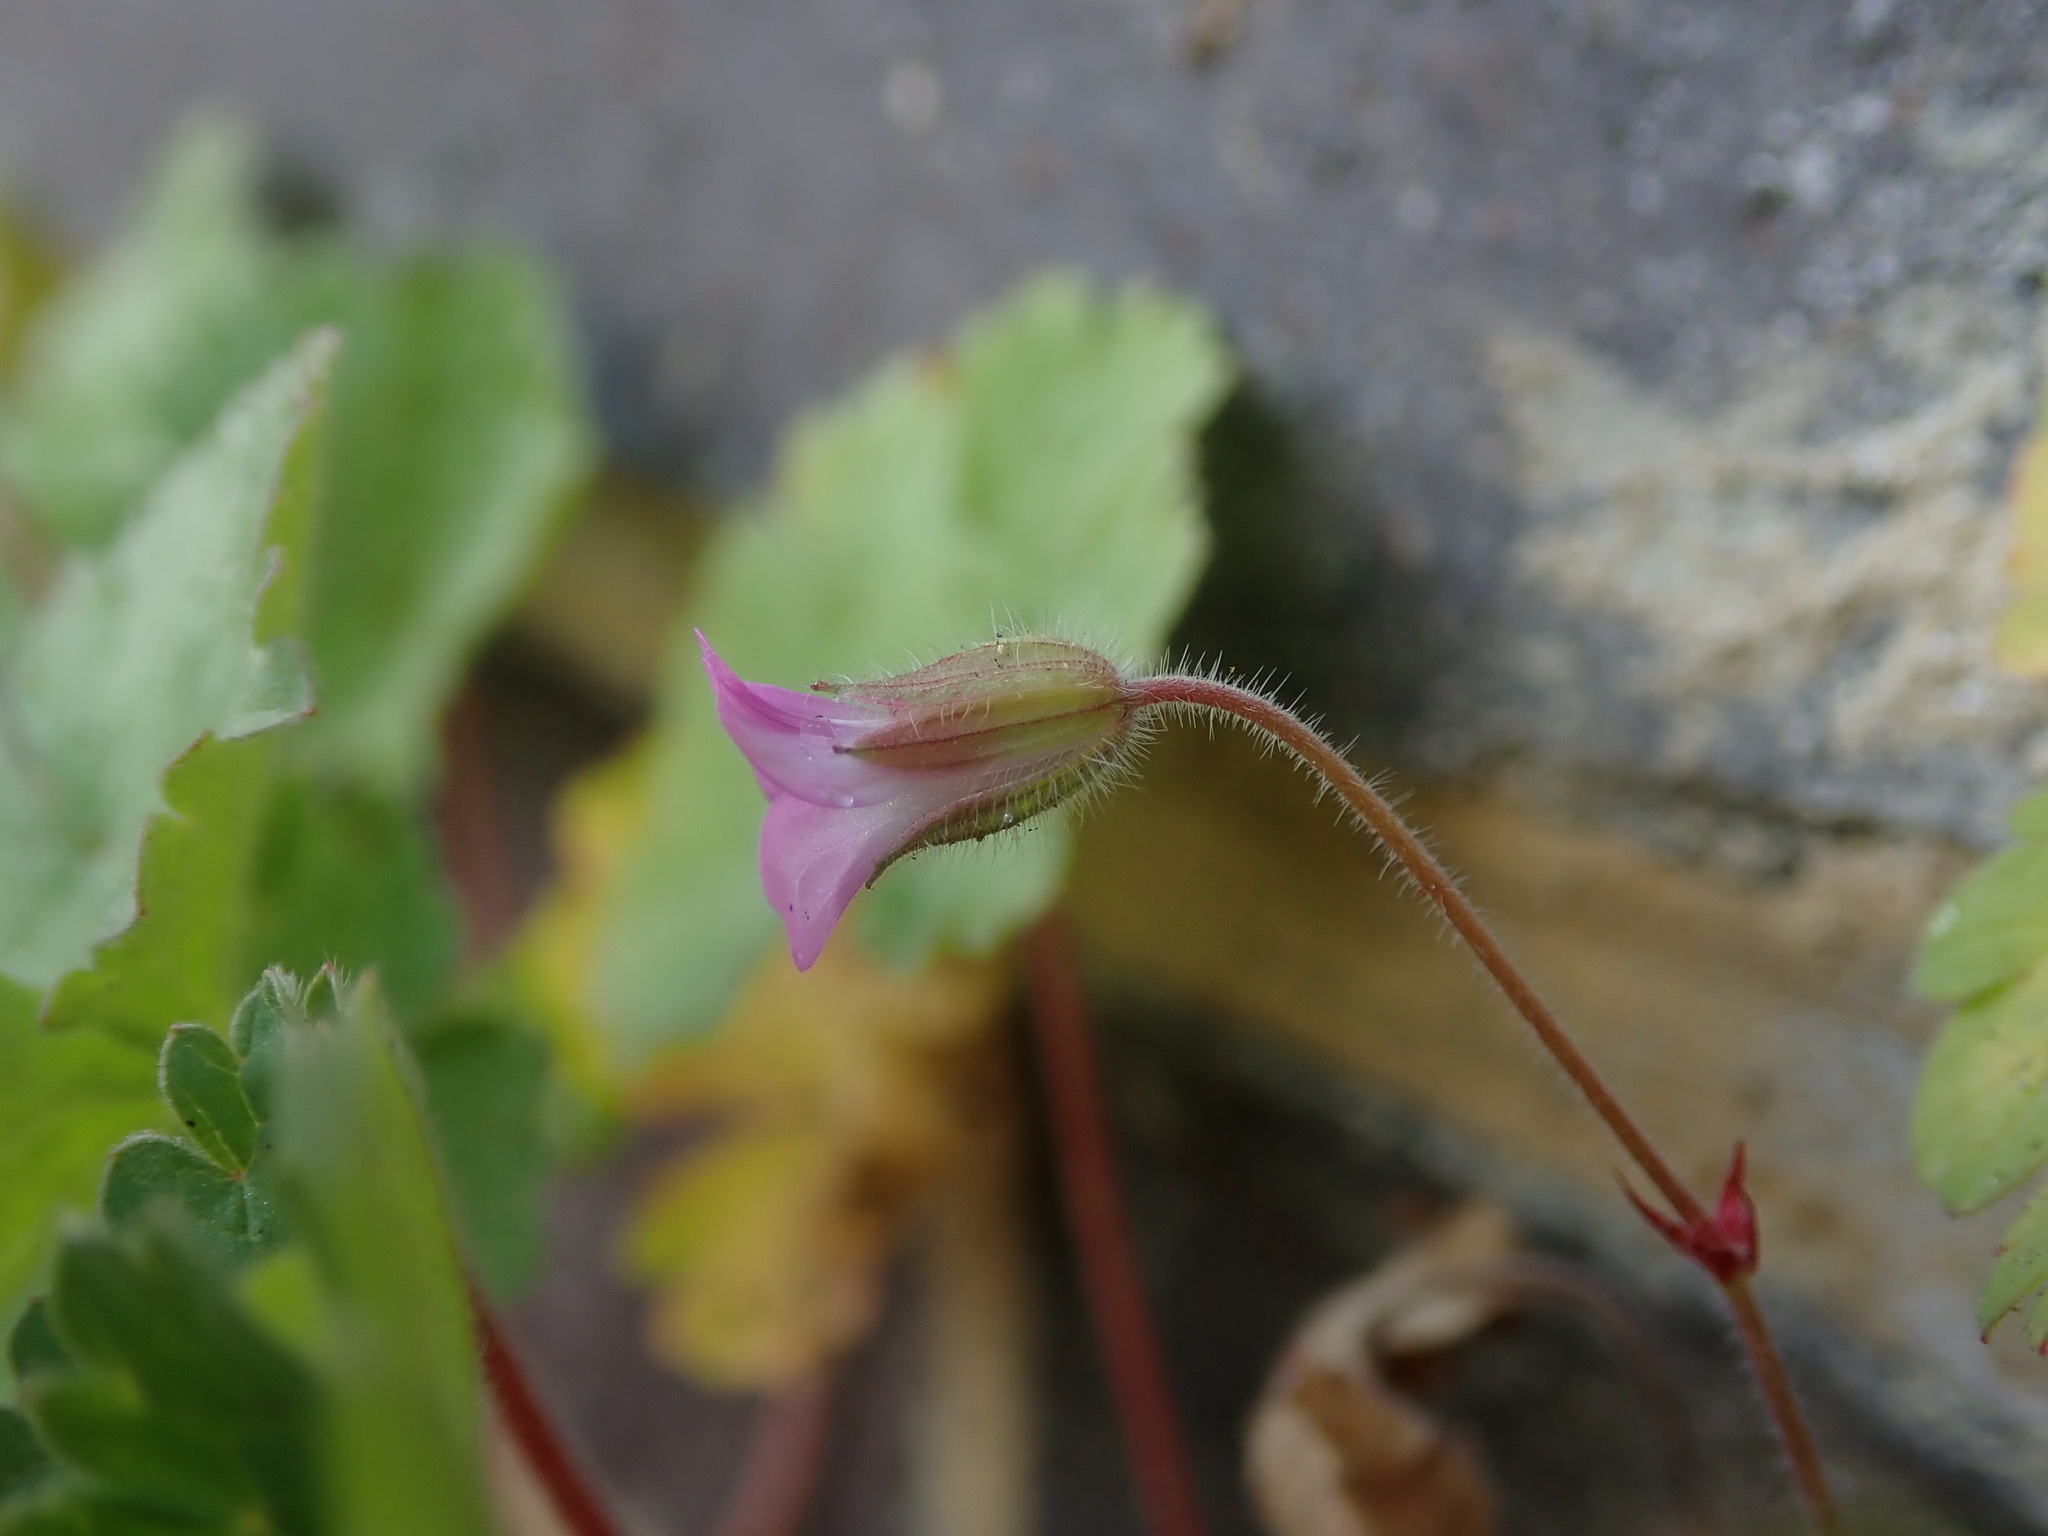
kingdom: Plantae
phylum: Tracheophyta
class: Magnoliopsida
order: Geraniales
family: Geraniaceae
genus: Geranium
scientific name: Geranium rotundifolium
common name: Round-leaved crane's-bill
